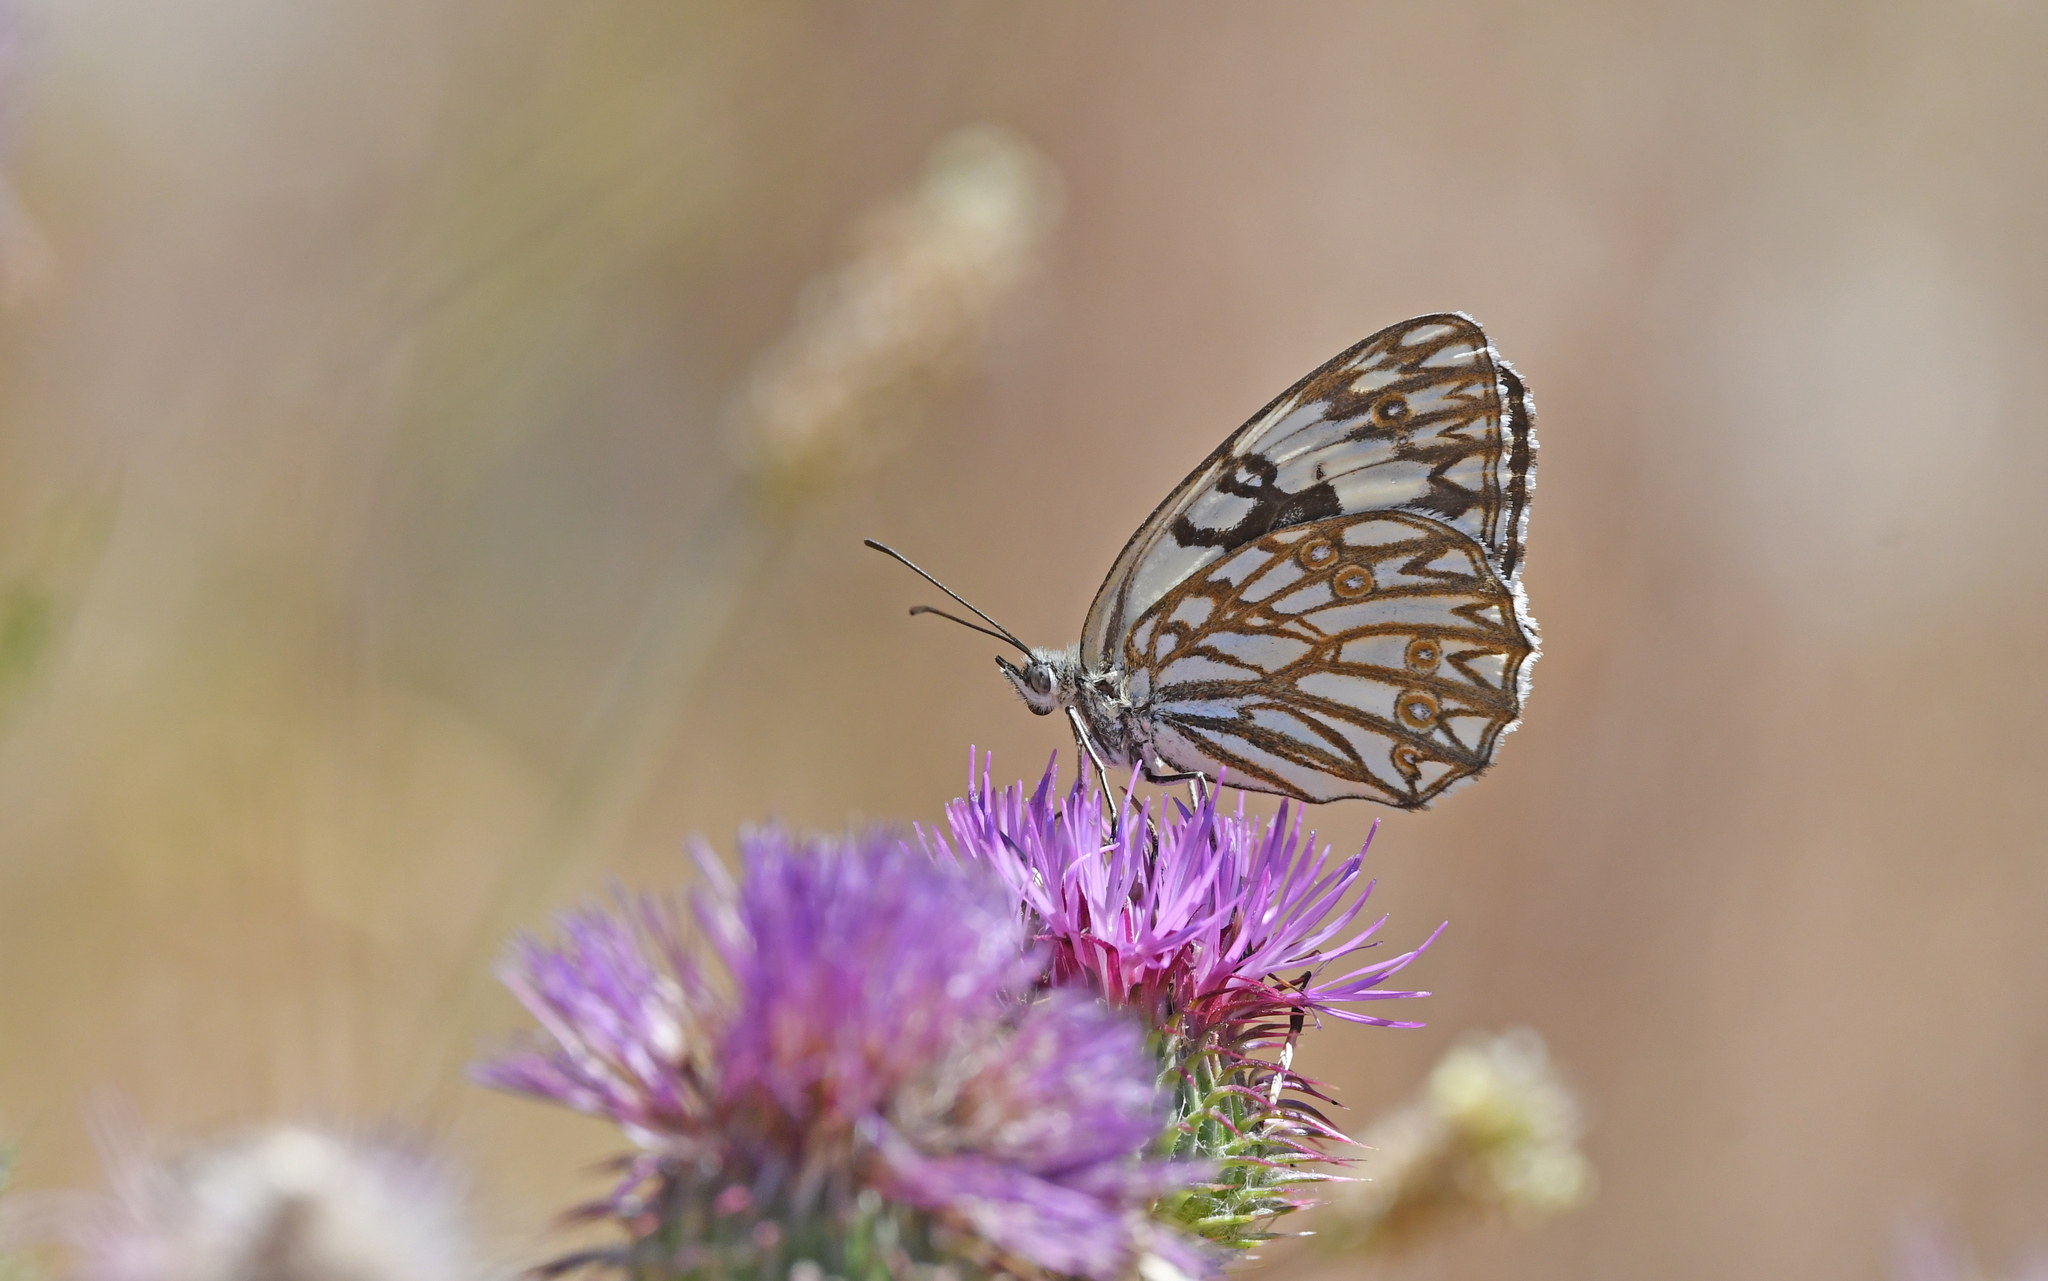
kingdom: Animalia
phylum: Arthropoda
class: Insecta
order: Lepidoptera
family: Nymphalidae
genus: Melanargia
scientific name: Melanargia occitanica
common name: Western marbled white
